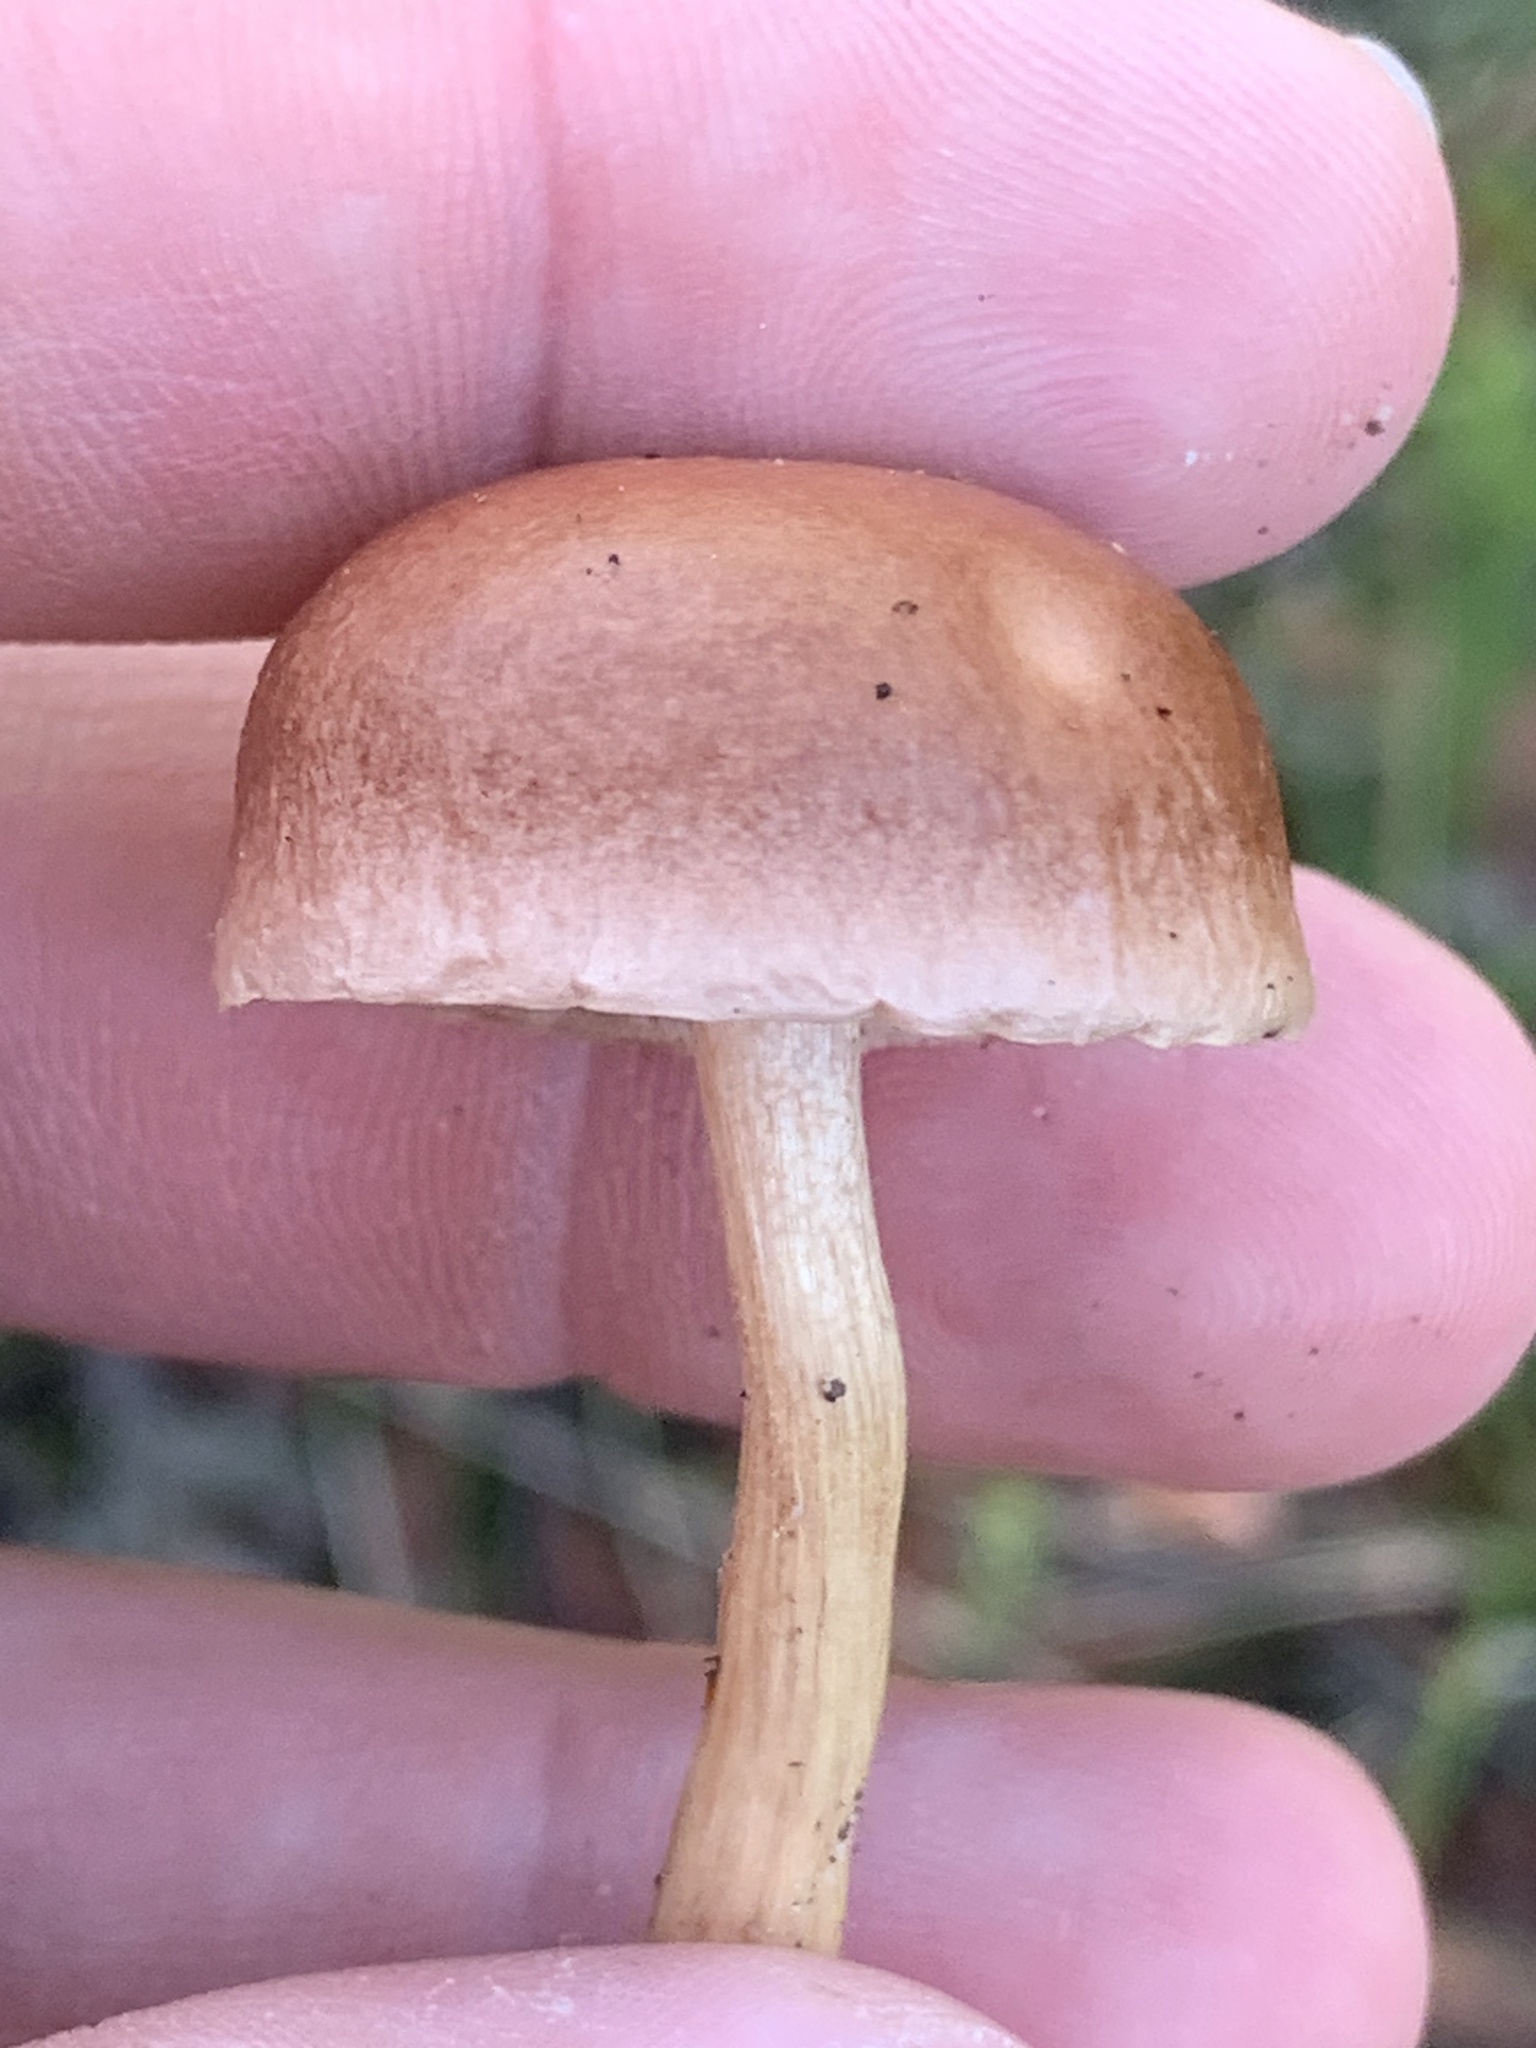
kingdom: Fungi
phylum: Basidiomycota
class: Agaricomycetes
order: Boletales
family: Boletaceae
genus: Fistulinella
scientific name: Fistulinella mollis
